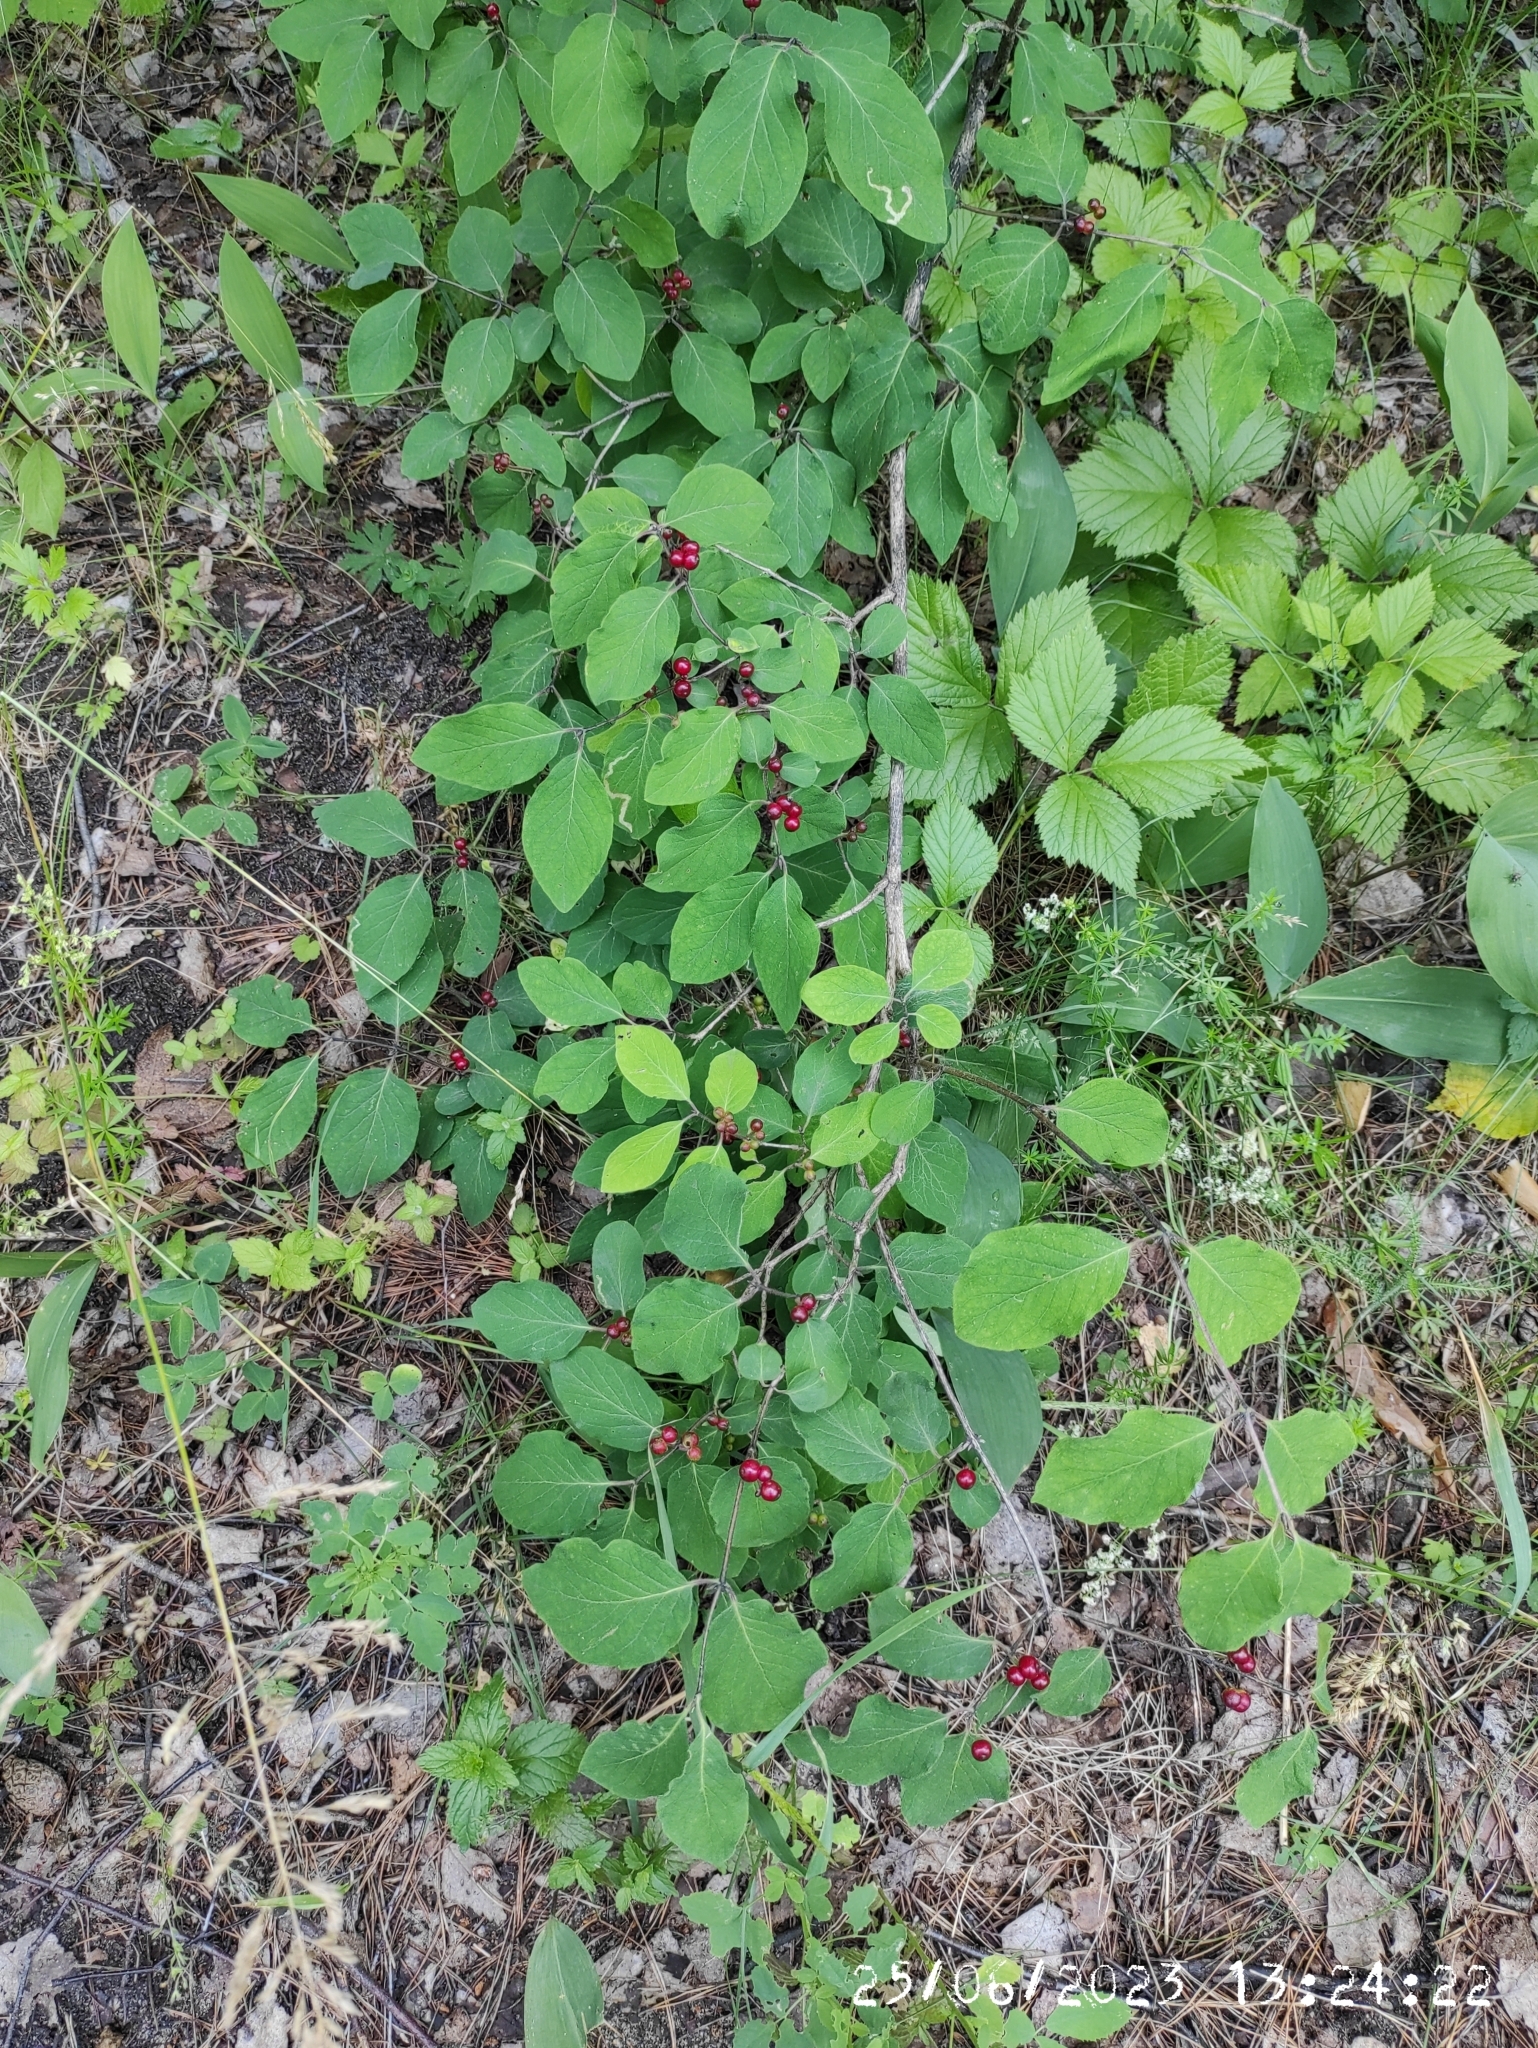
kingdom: Plantae
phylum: Tracheophyta
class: Magnoliopsida
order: Dipsacales
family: Caprifoliaceae
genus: Lonicera
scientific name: Lonicera xylosteum
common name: Fly honeysuckle
